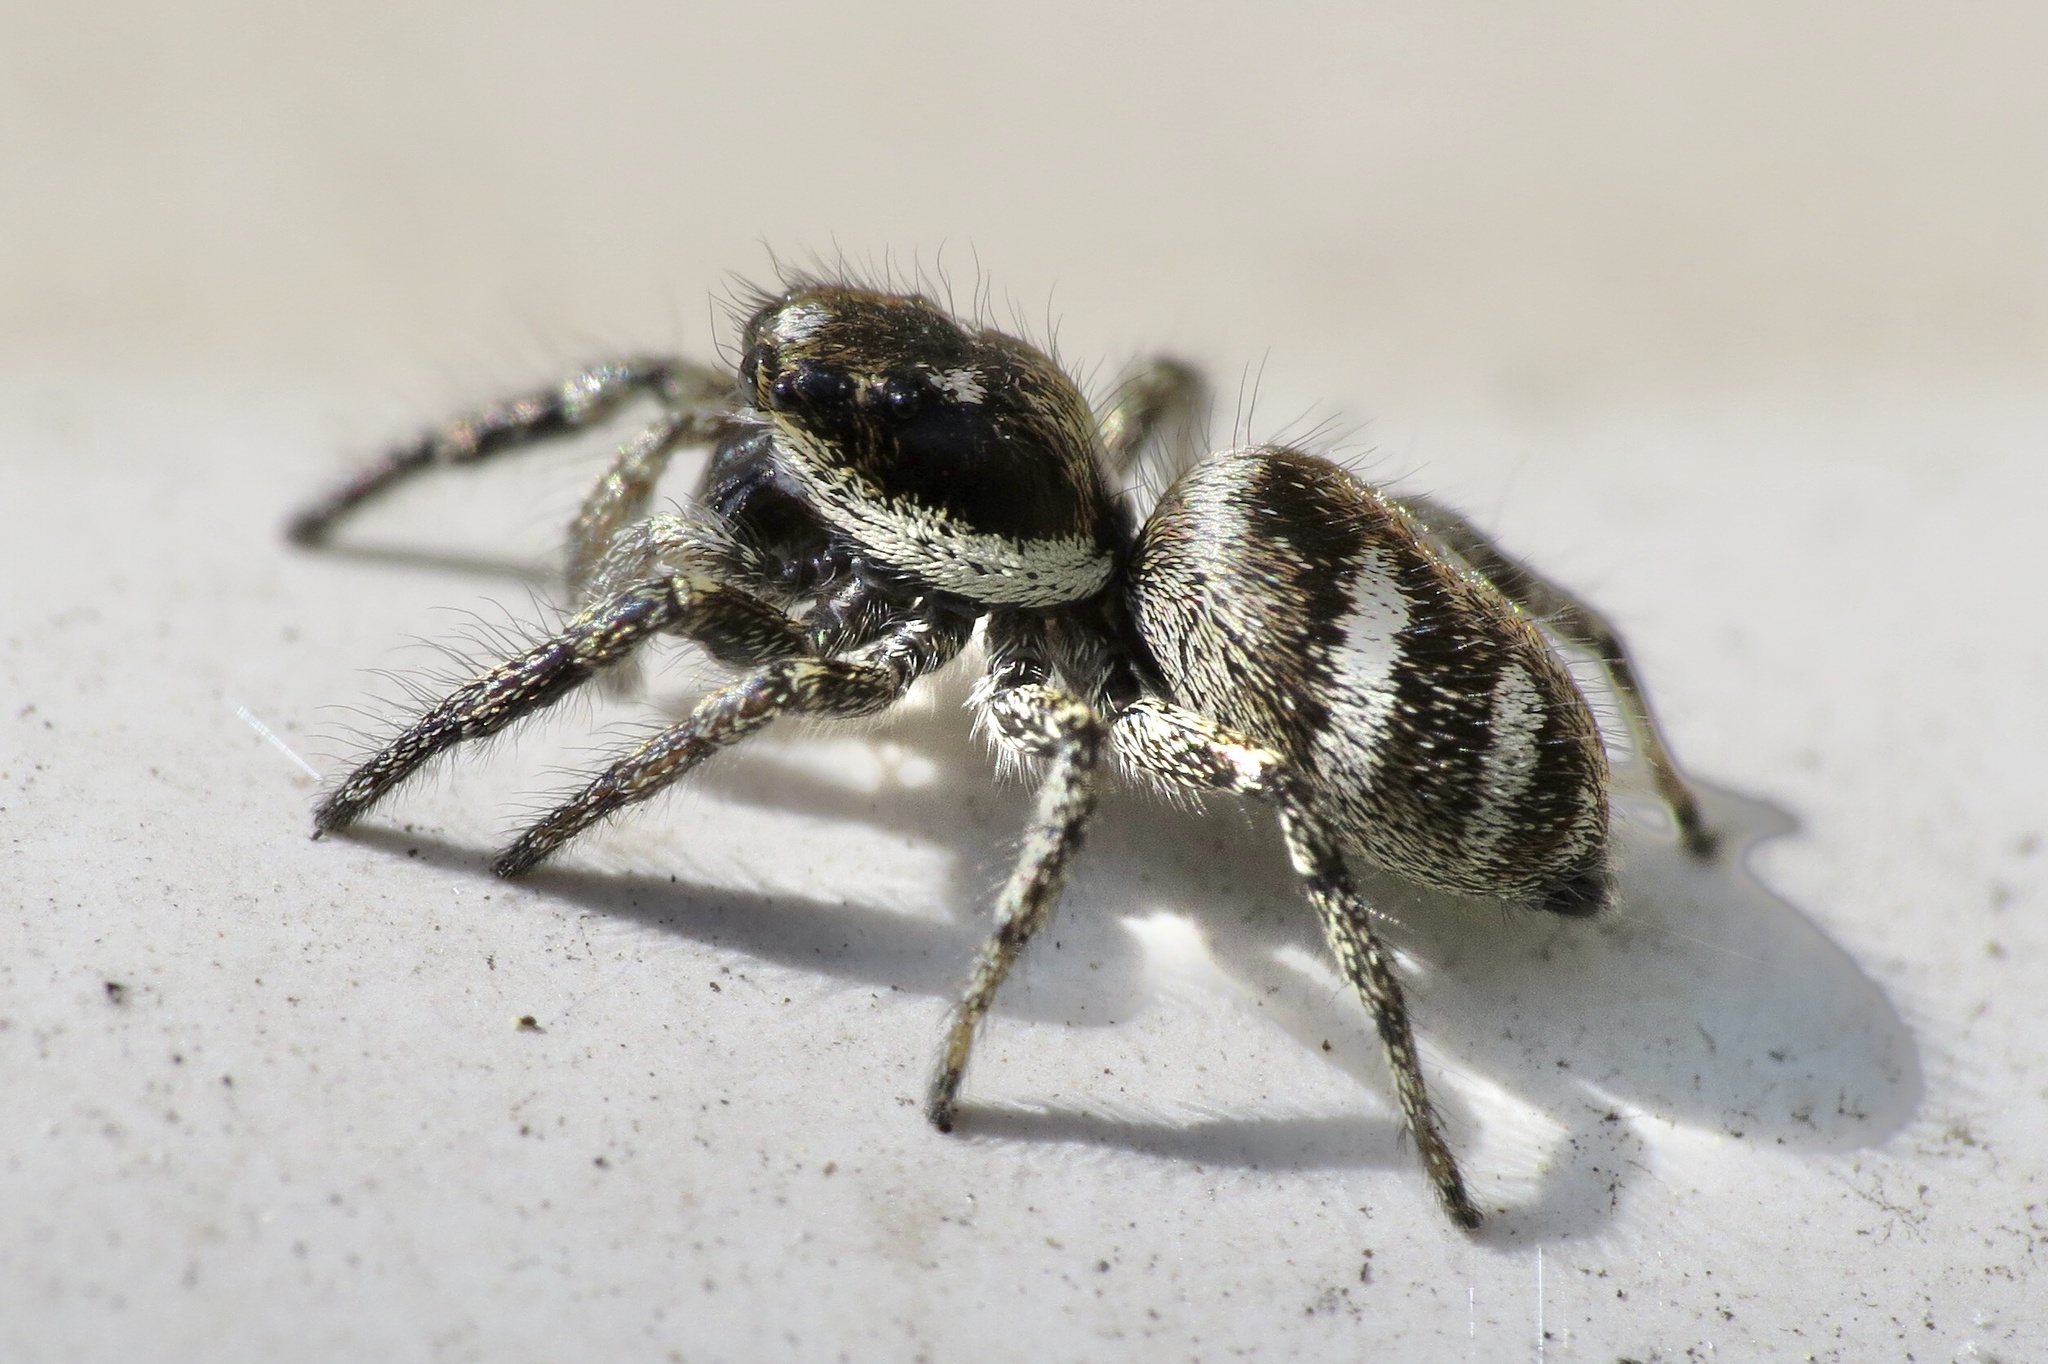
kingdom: Animalia
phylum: Arthropoda
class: Arachnida
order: Araneae
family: Salticidae
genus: Salticus
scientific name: Salticus scenicus
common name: Zebra jumper
